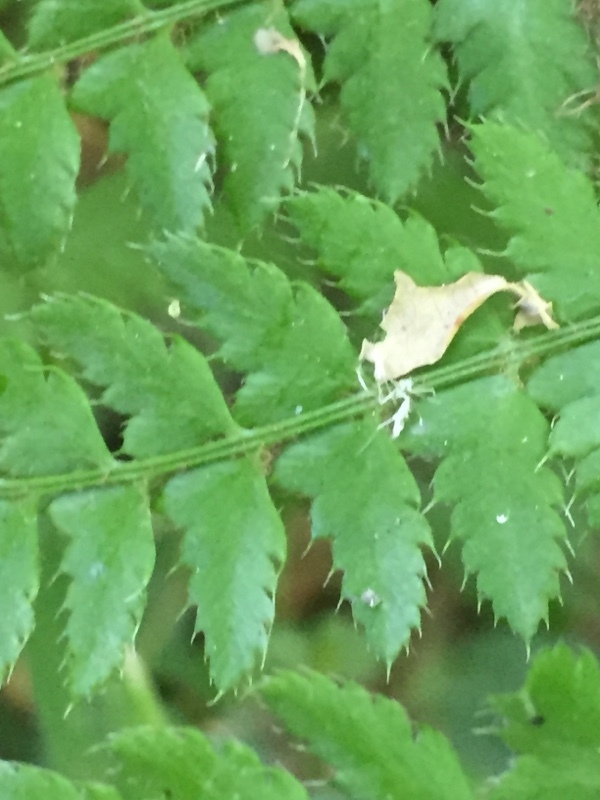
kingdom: Plantae
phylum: Tracheophyta
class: Polypodiopsida
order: Polypodiales
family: Dryopteridaceae
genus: Polystichum
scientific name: Polystichum setiferum
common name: Soft shield-fern
